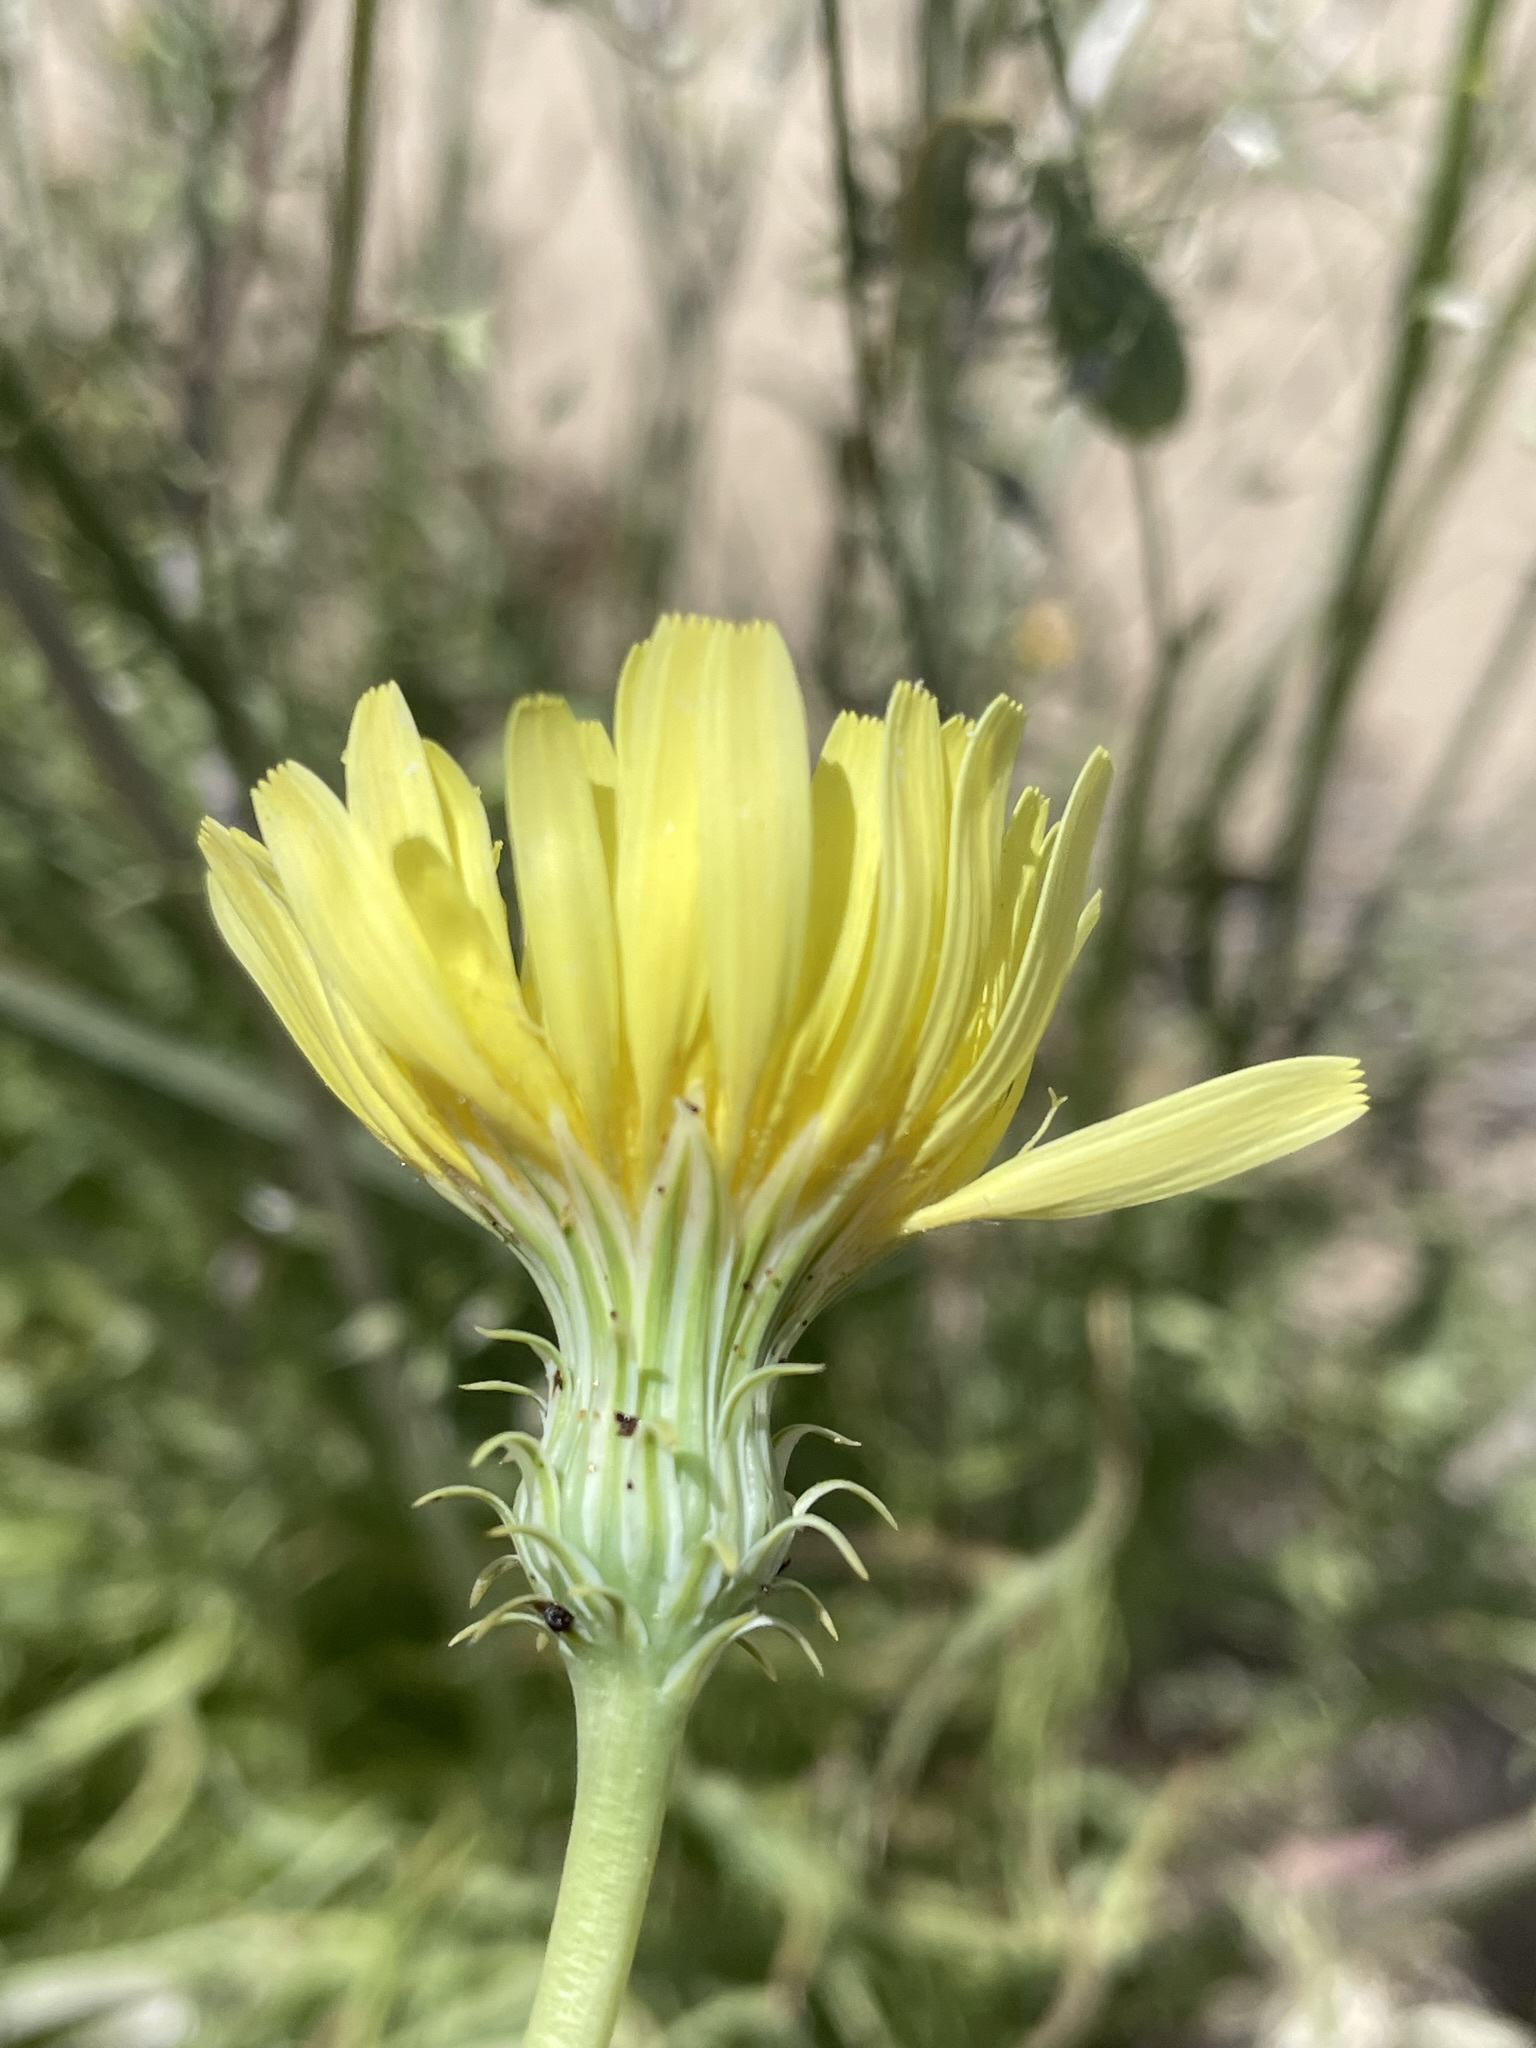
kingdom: Plantae
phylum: Tracheophyta
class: Magnoliopsida
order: Asterales
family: Asteraceae
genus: Malacothrix
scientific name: Malacothrix glabrata
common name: Smooth desert-dandelion
